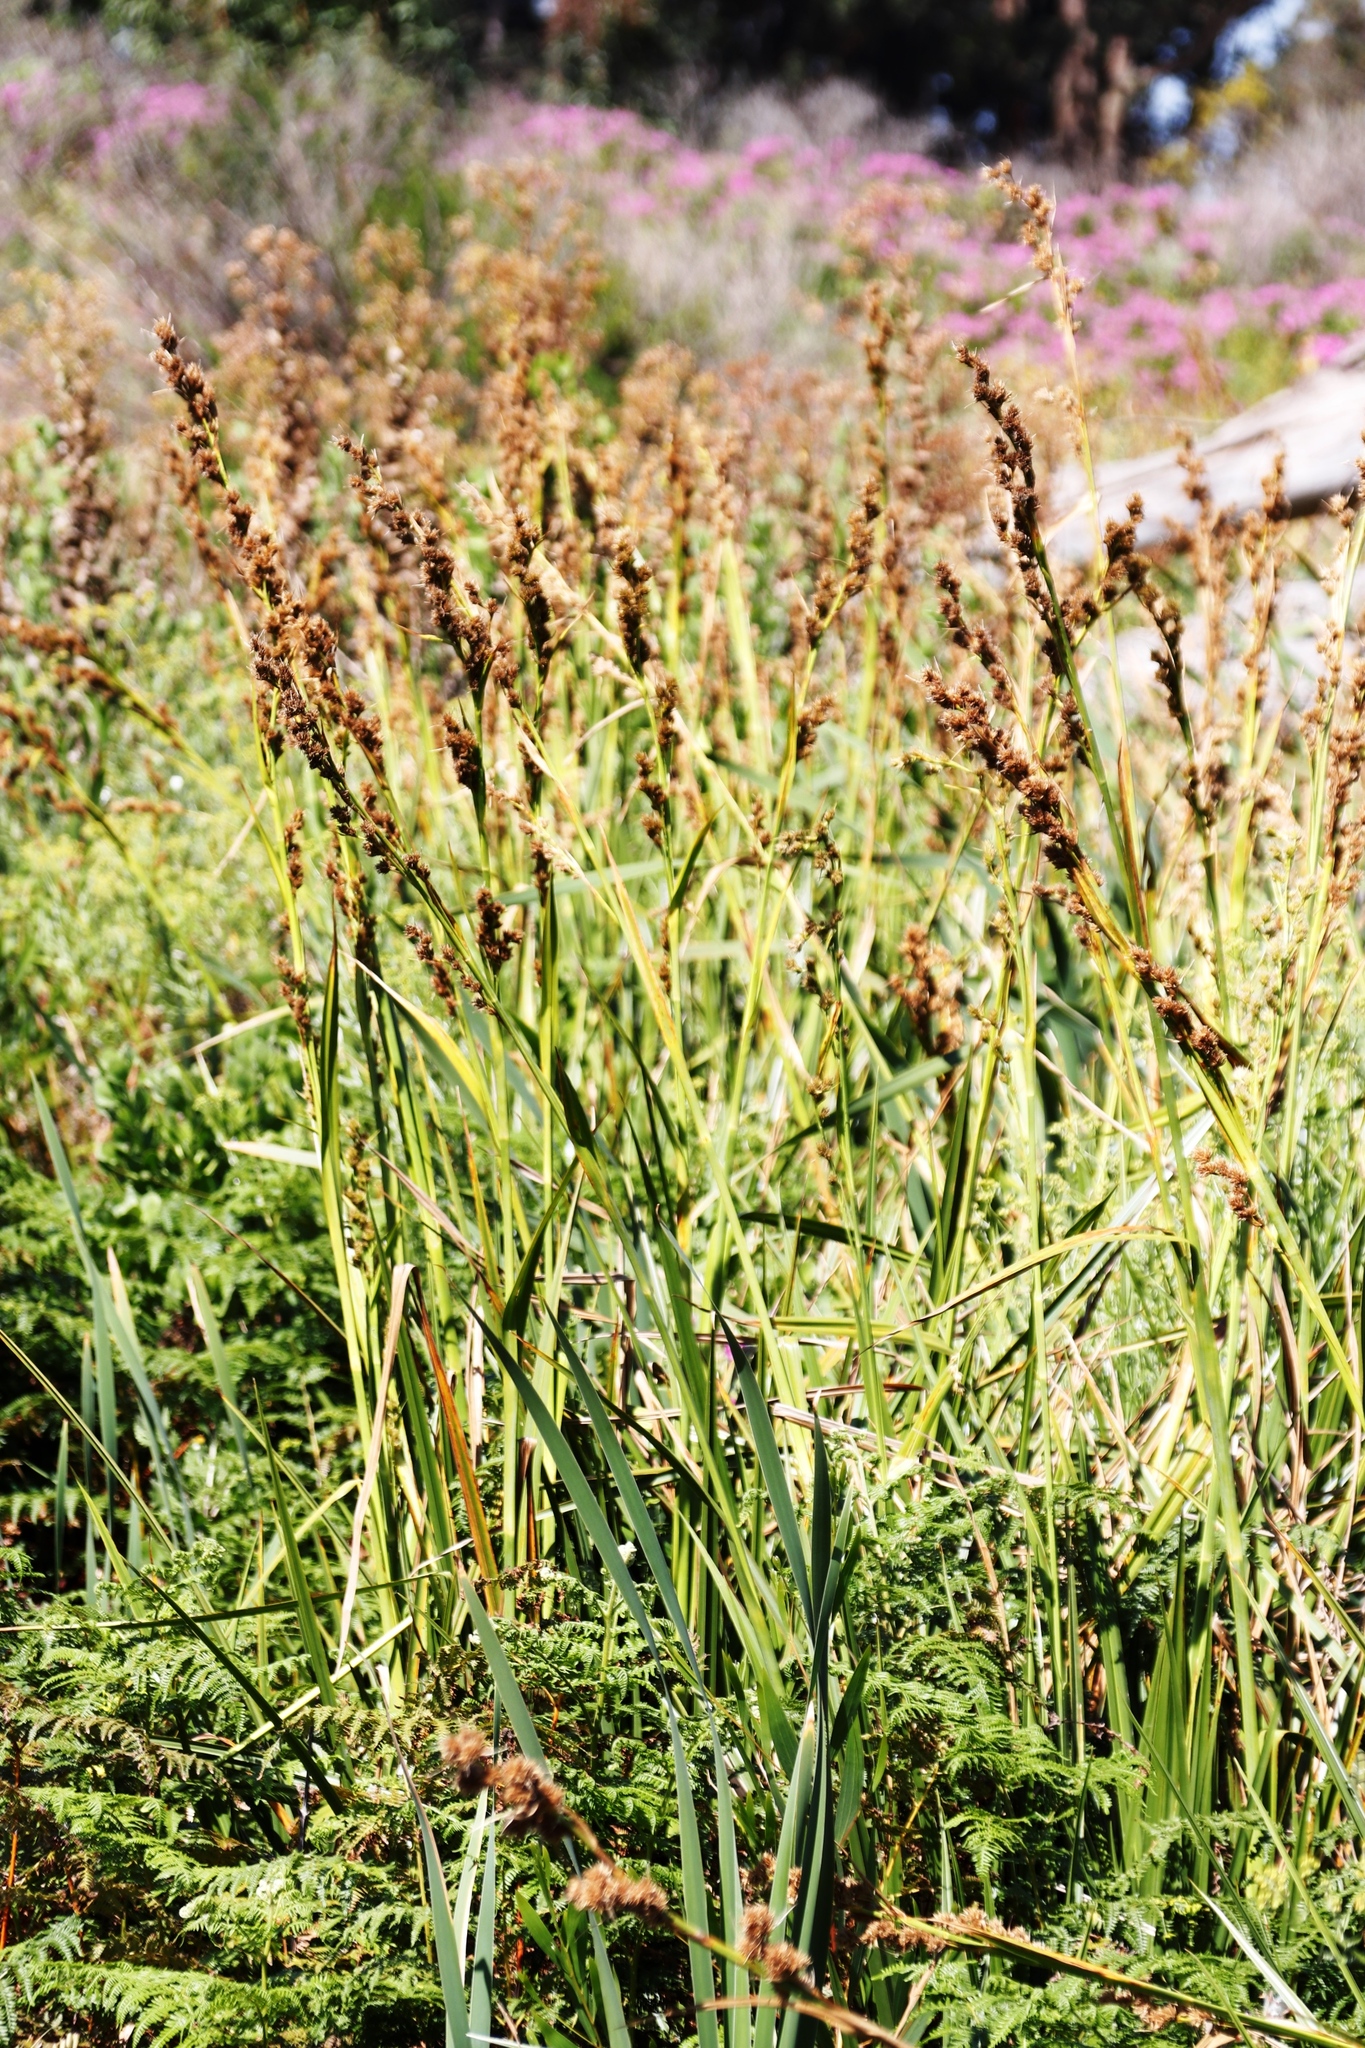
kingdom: Plantae
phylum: Tracheophyta
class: Liliopsida
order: Poales
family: Cyperaceae
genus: Carpha
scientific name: Carpha glomerata
